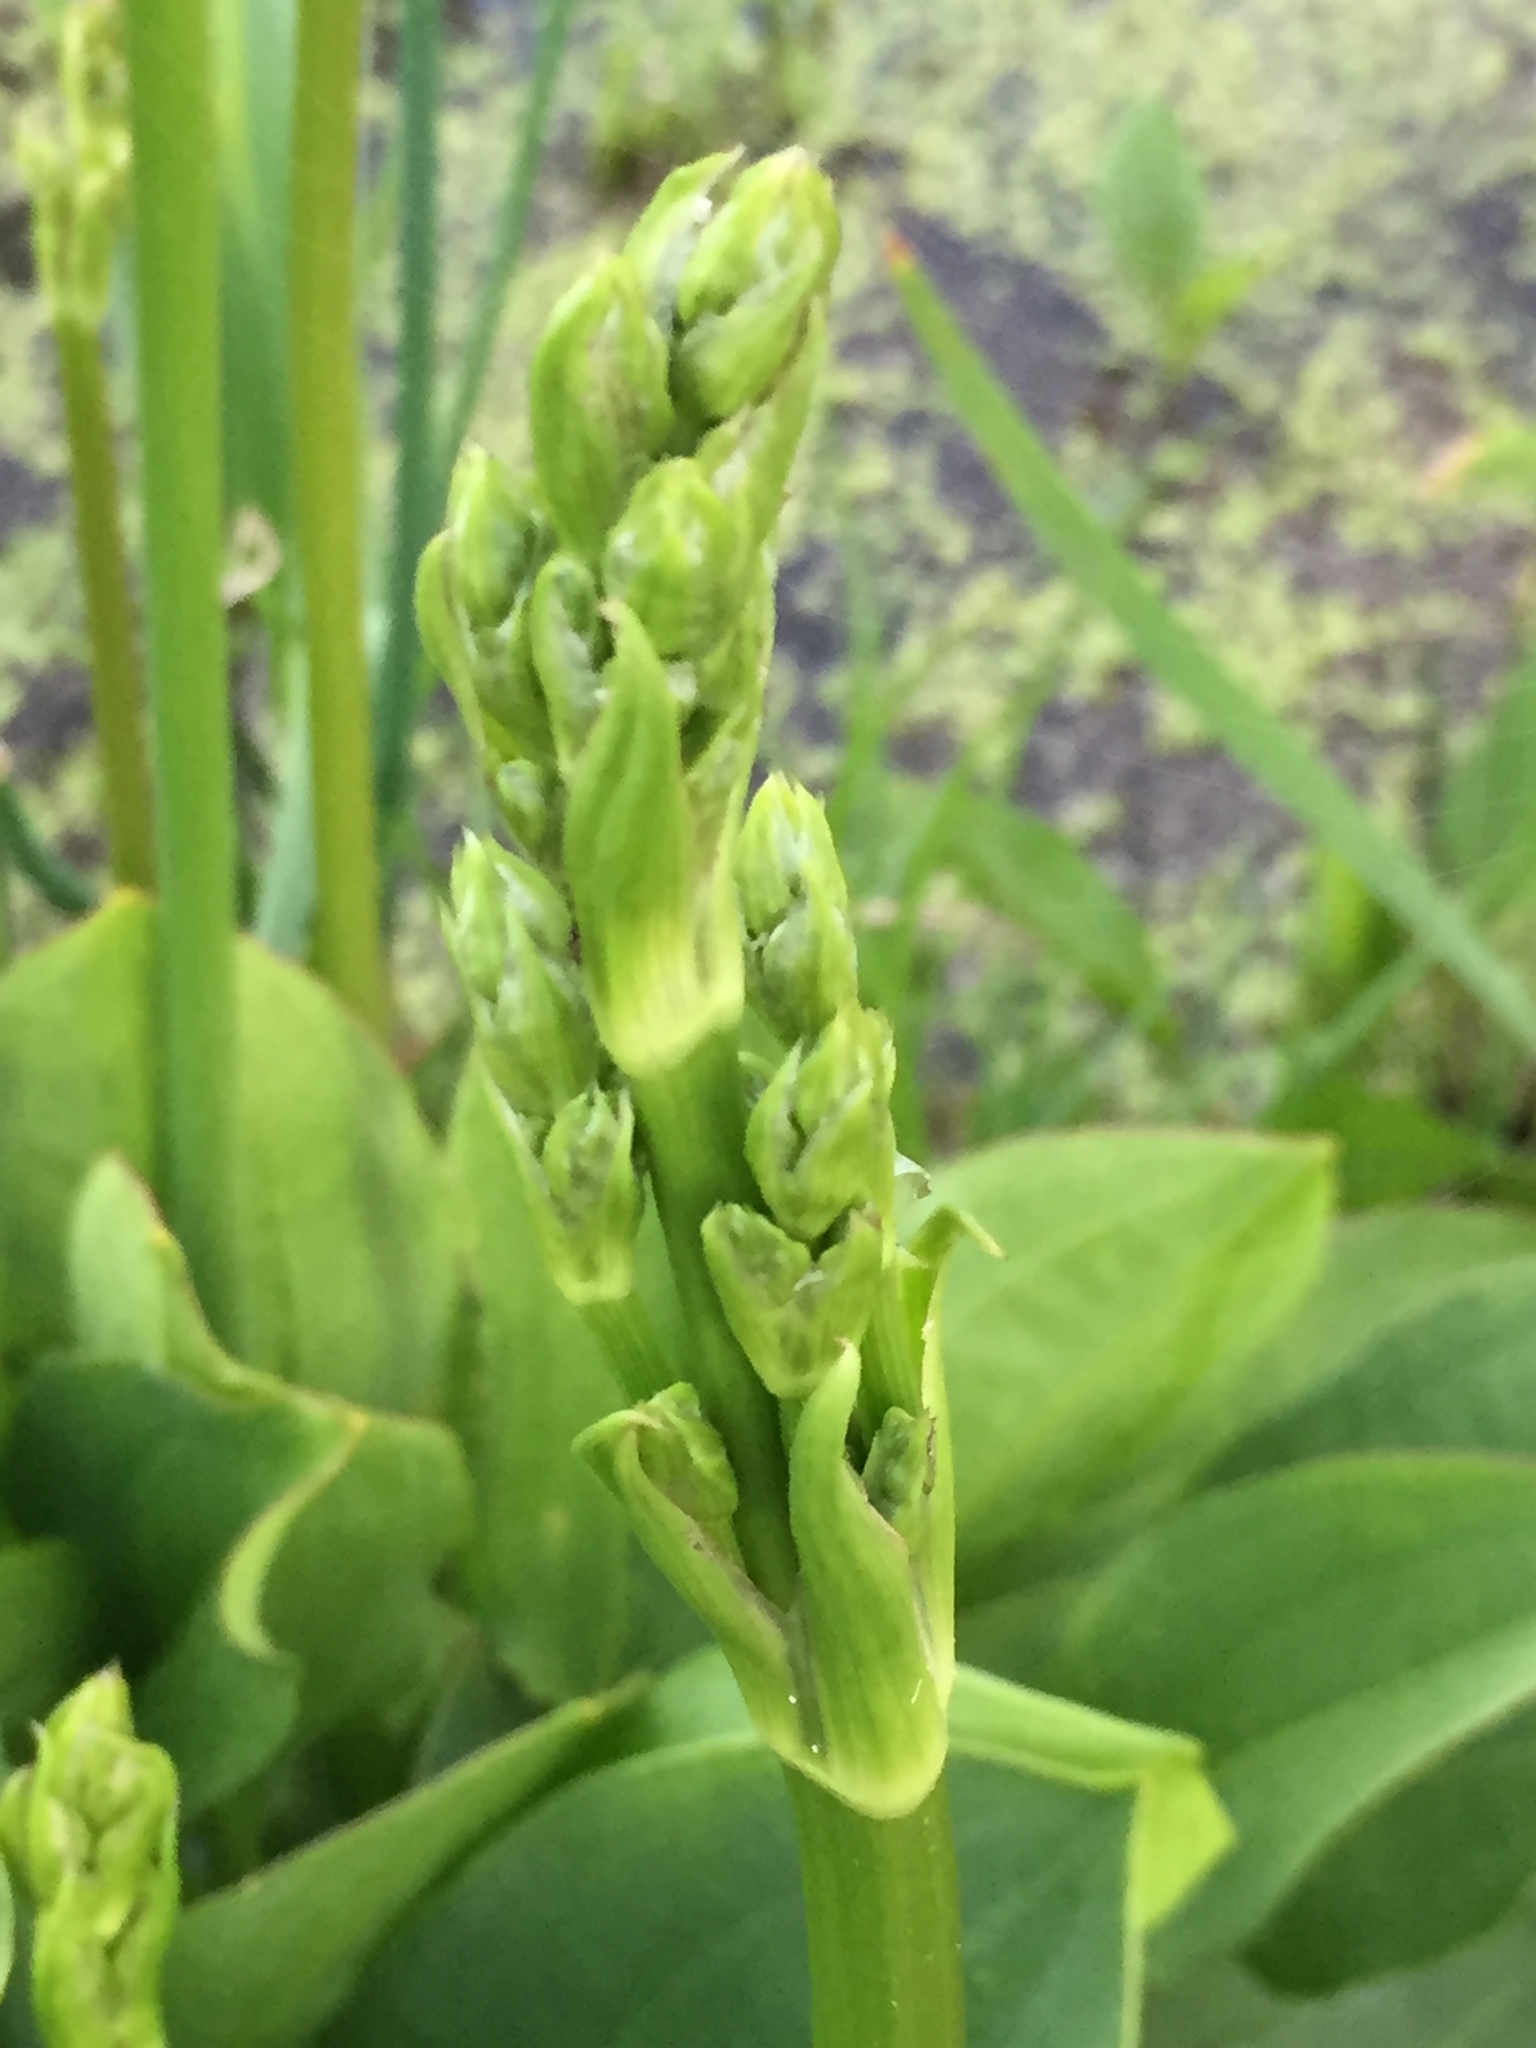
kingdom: Plantae
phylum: Tracheophyta
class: Liliopsida
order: Alismatales
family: Alismataceae
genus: Alisma
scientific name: Alisma plantago-aquatica
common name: Water-plantain
